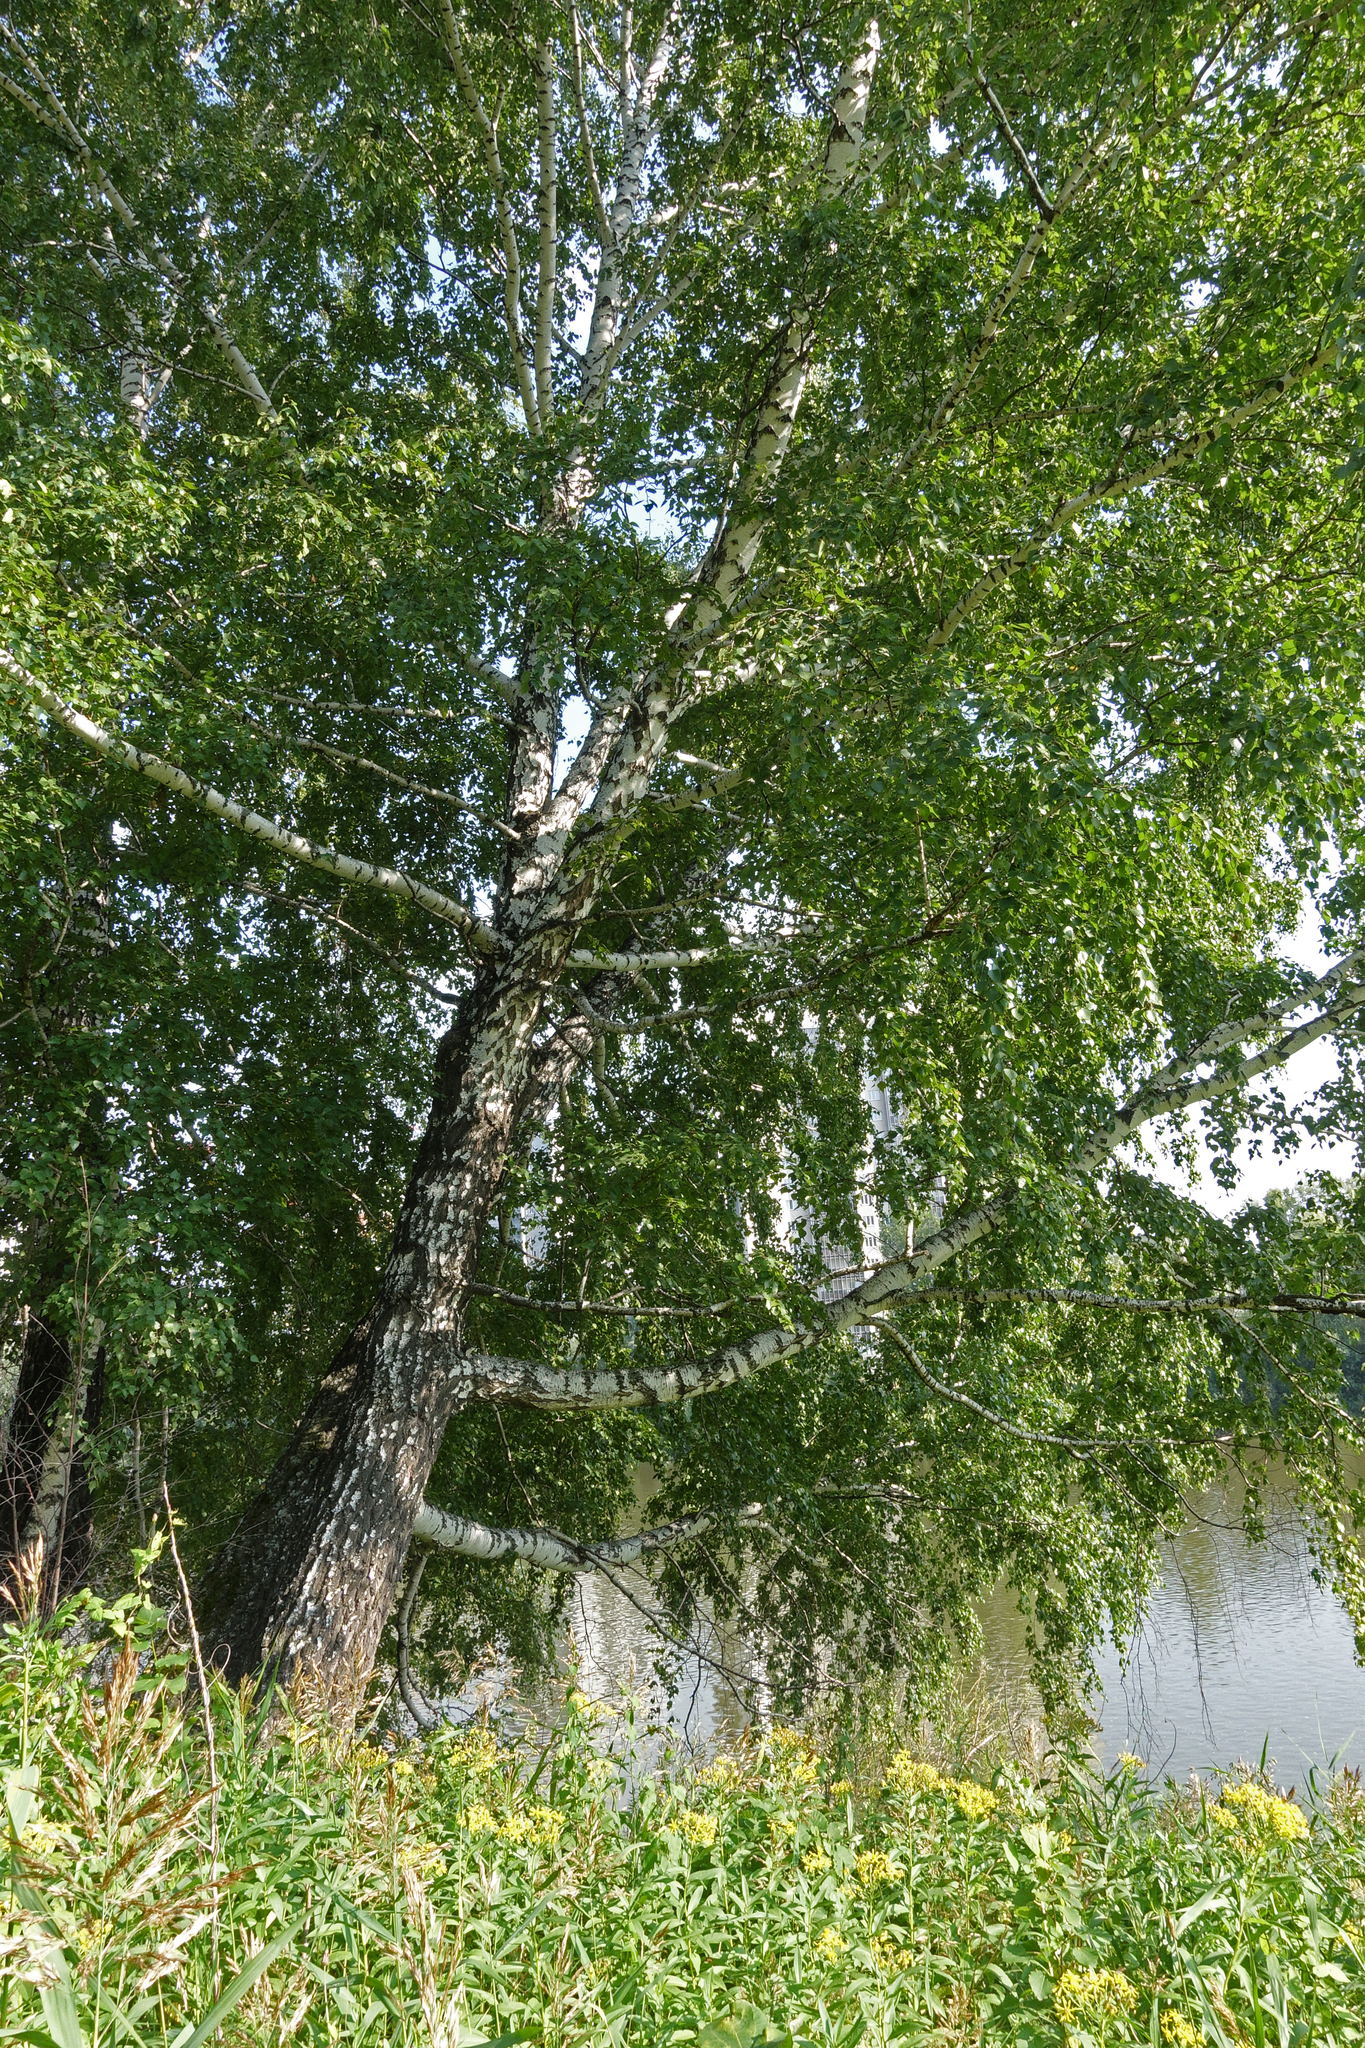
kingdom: Plantae
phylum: Tracheophyta
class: Magnoliopsida
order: Fagales
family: Betulaceae
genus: Betula
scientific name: Betula pendula
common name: Silver birch
